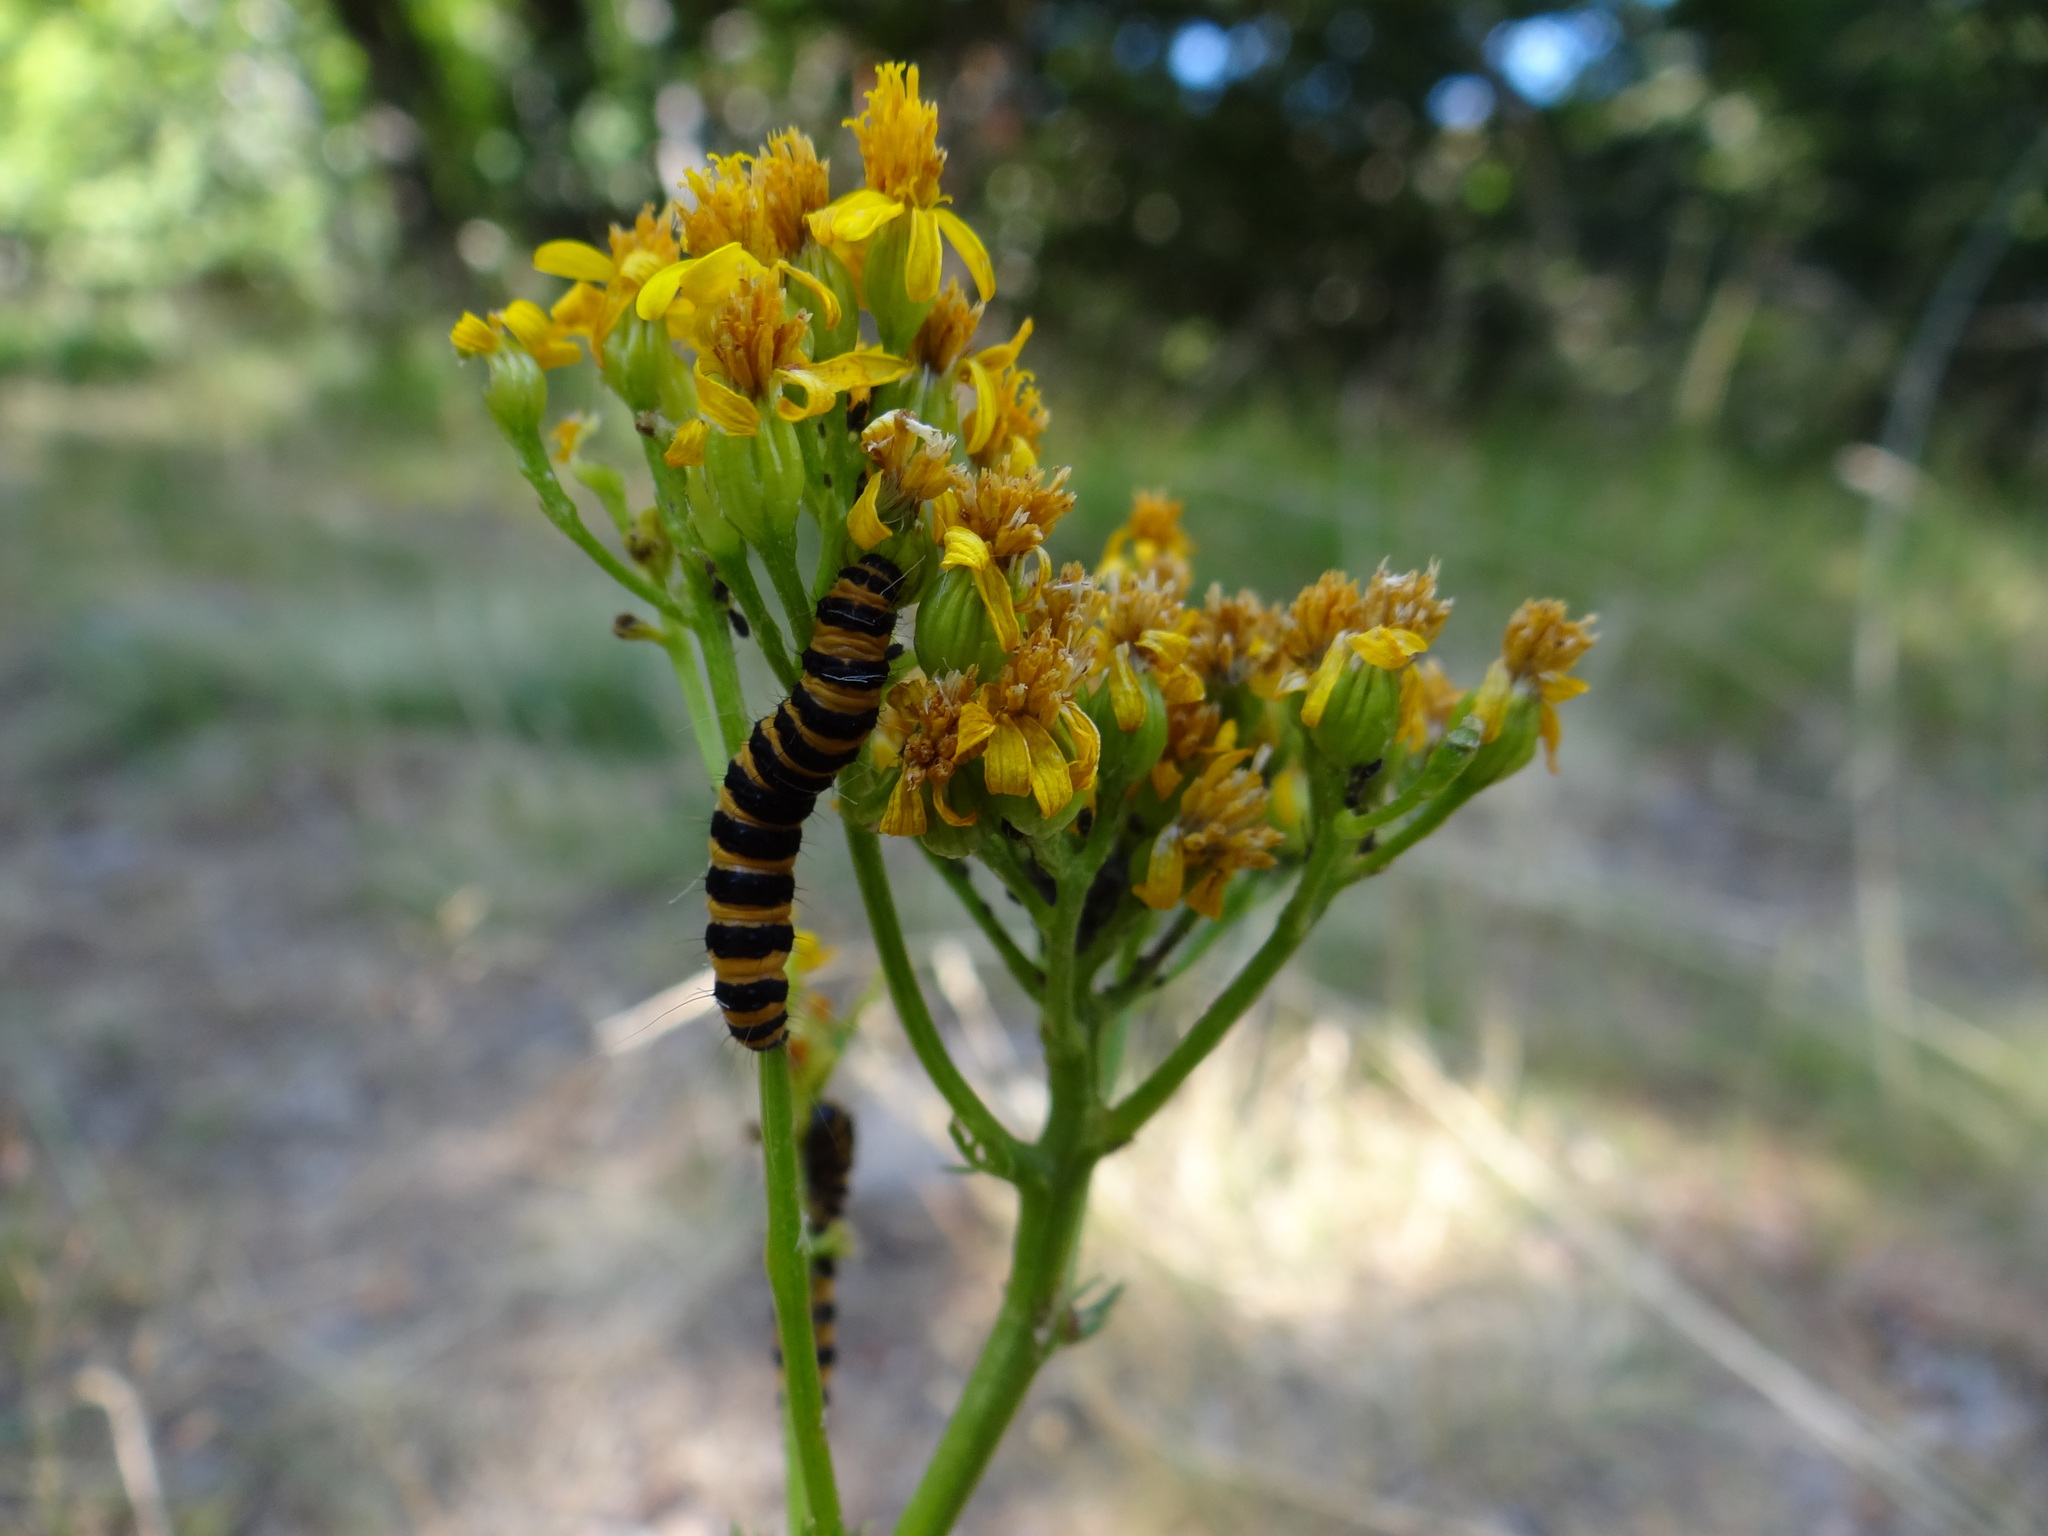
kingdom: Animalia
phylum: Arthropoda
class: Insecta
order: Lepidoptera
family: Erebidae
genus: Tyria
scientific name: Tyria jacobaeae
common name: Cinnabar
